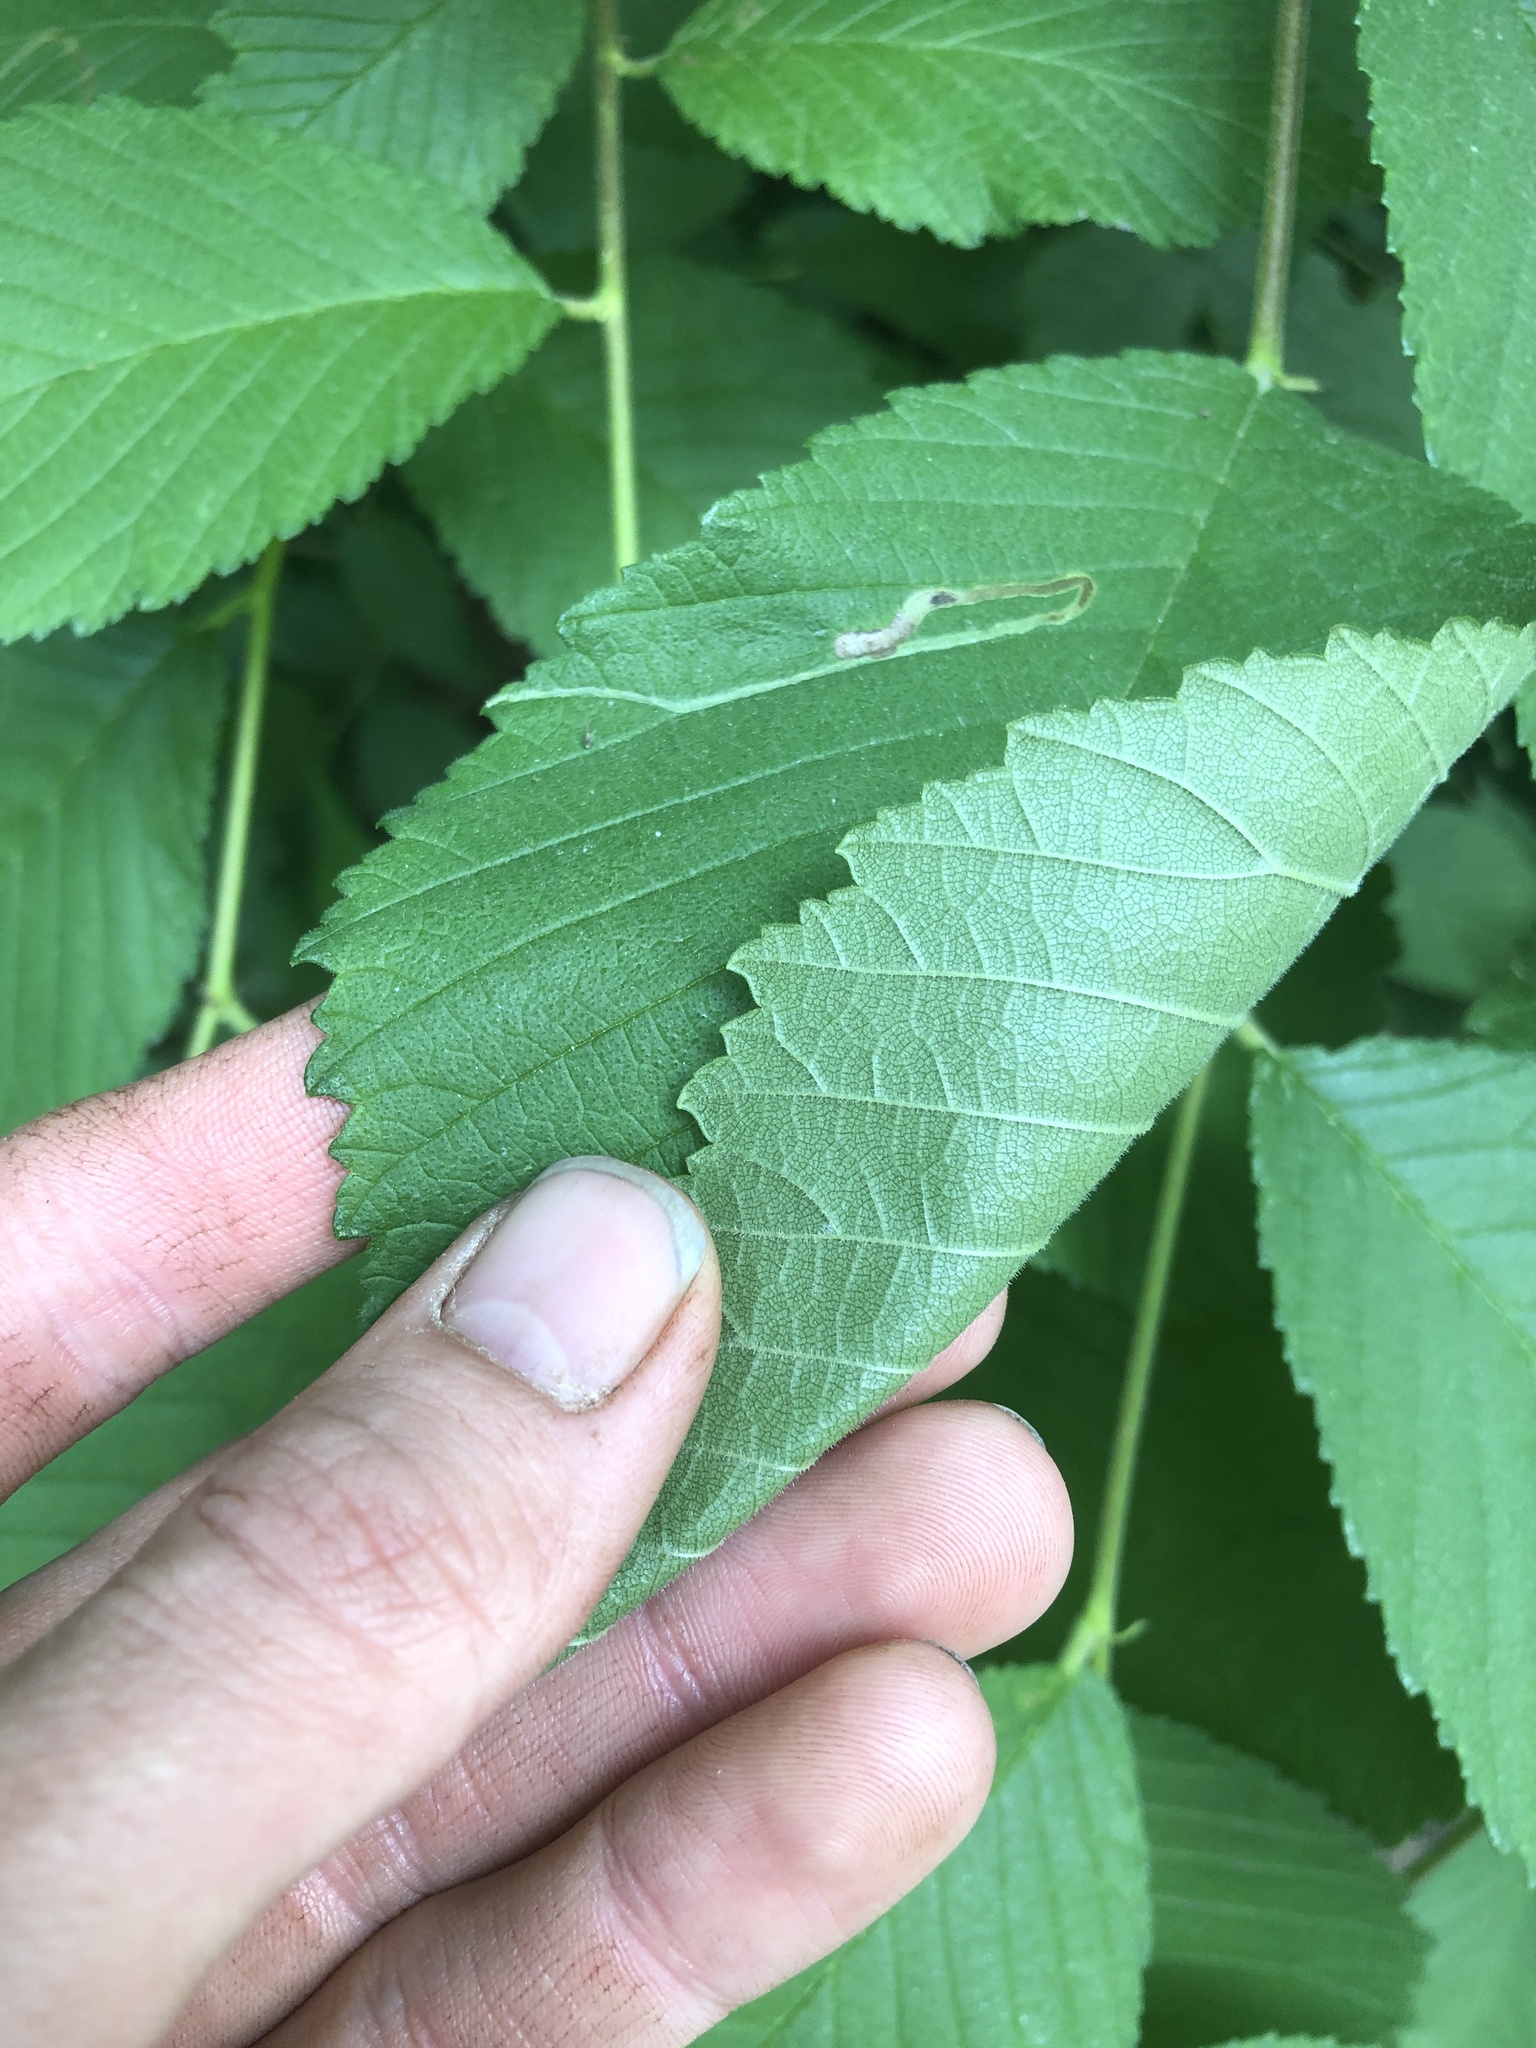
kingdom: Plantae
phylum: Tracheophyta
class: Magnoliopsida
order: Rosales
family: Ulmaceae
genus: Ulmus
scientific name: Ulmus rubra
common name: Slippery elm
